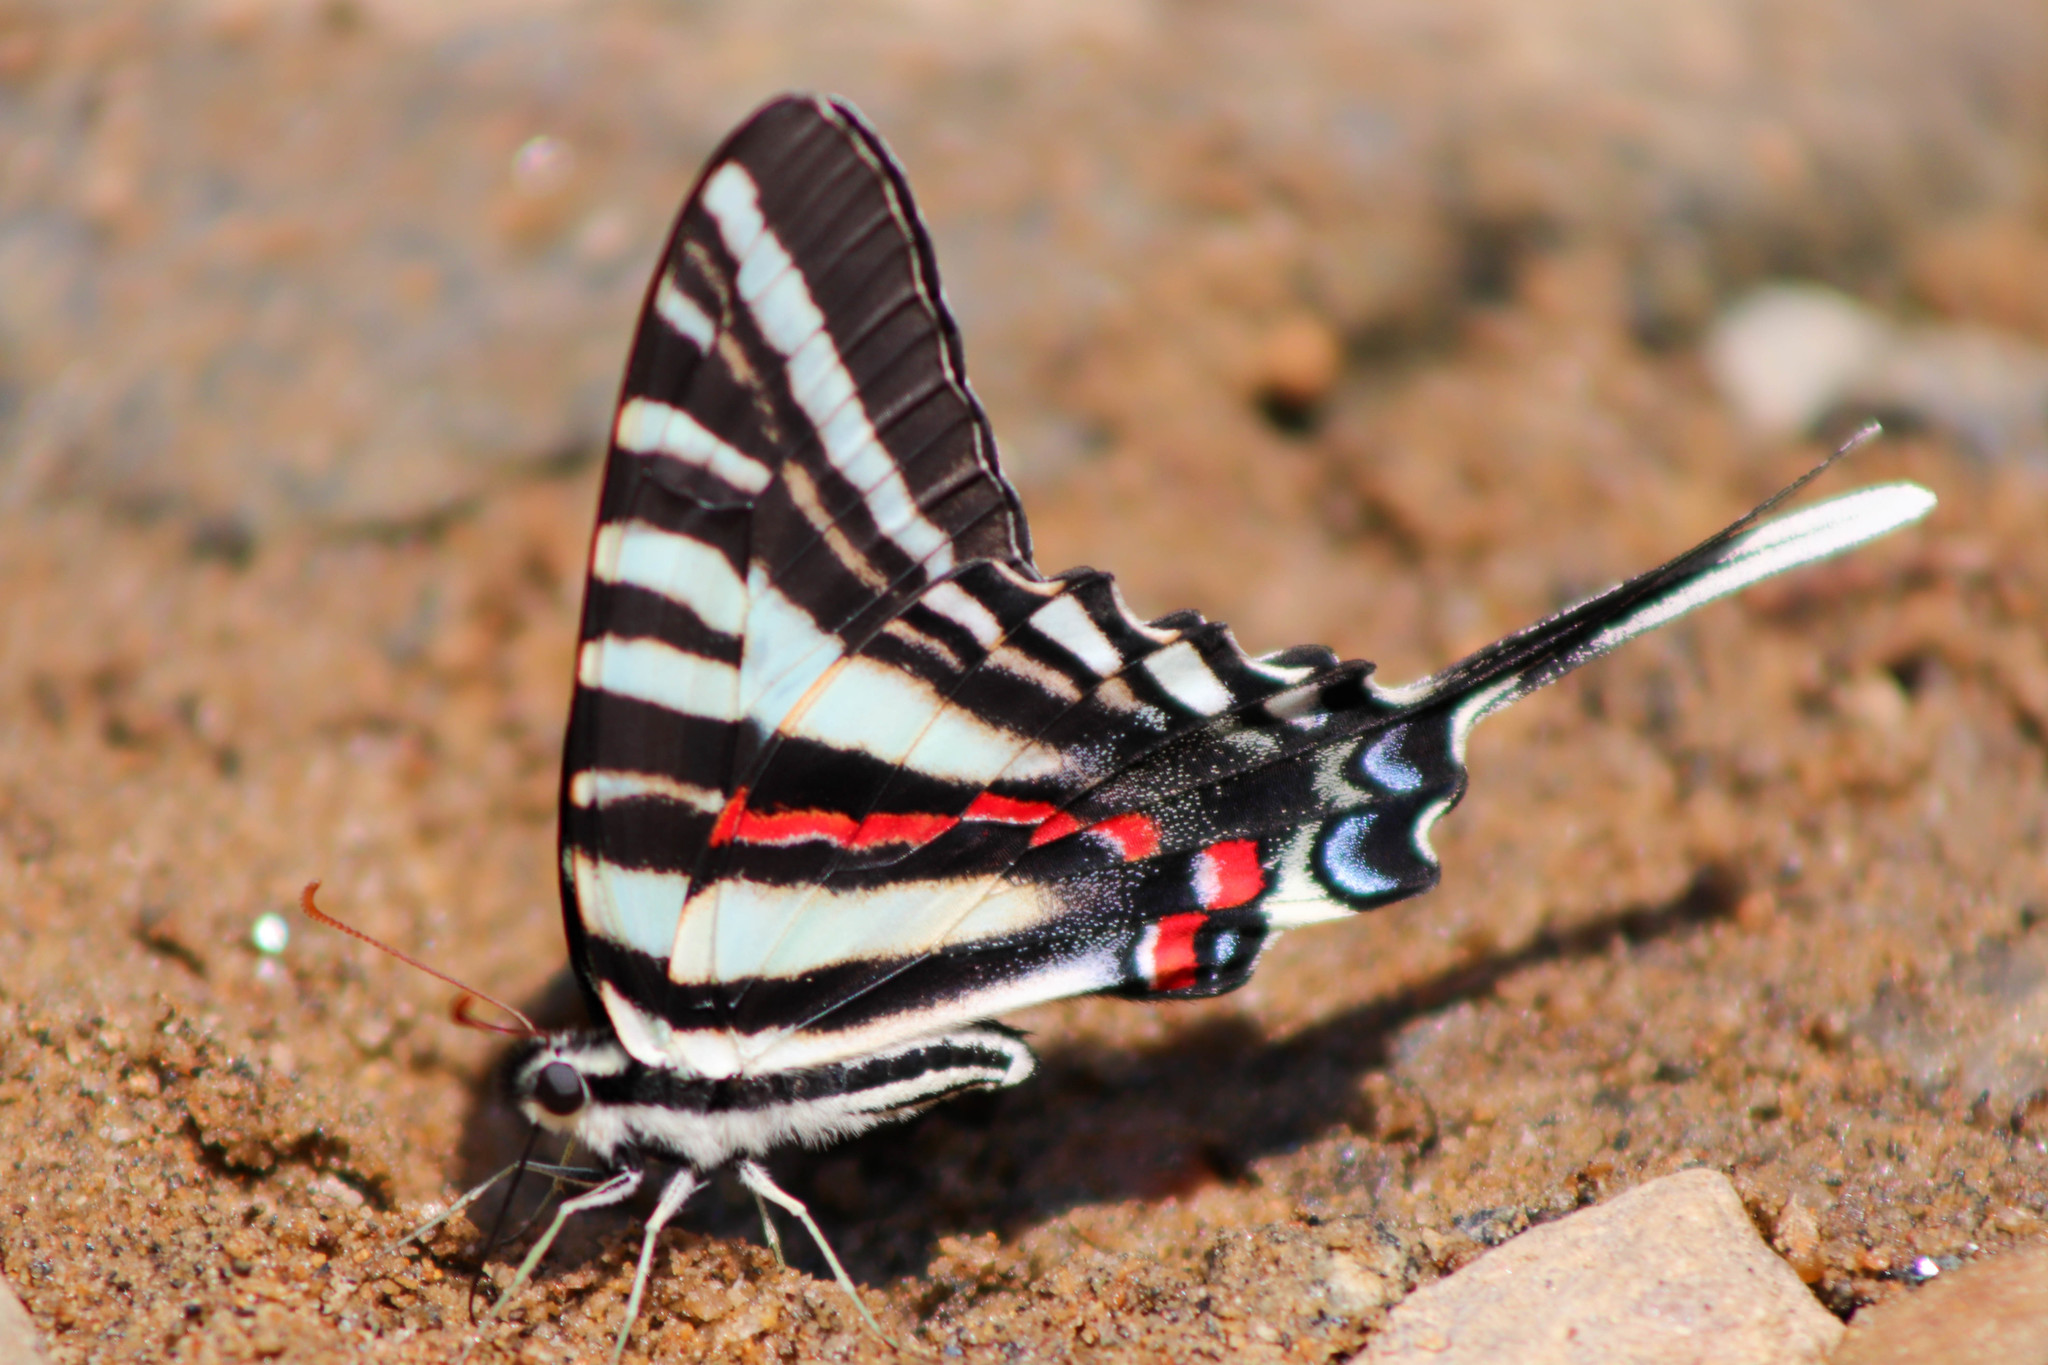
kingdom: Animalia
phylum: Arthropoda
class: Insecta
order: Lepidoptera
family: Papilionidae
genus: Protographium
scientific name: Protographium marcellus
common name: Zebra swallowtail
